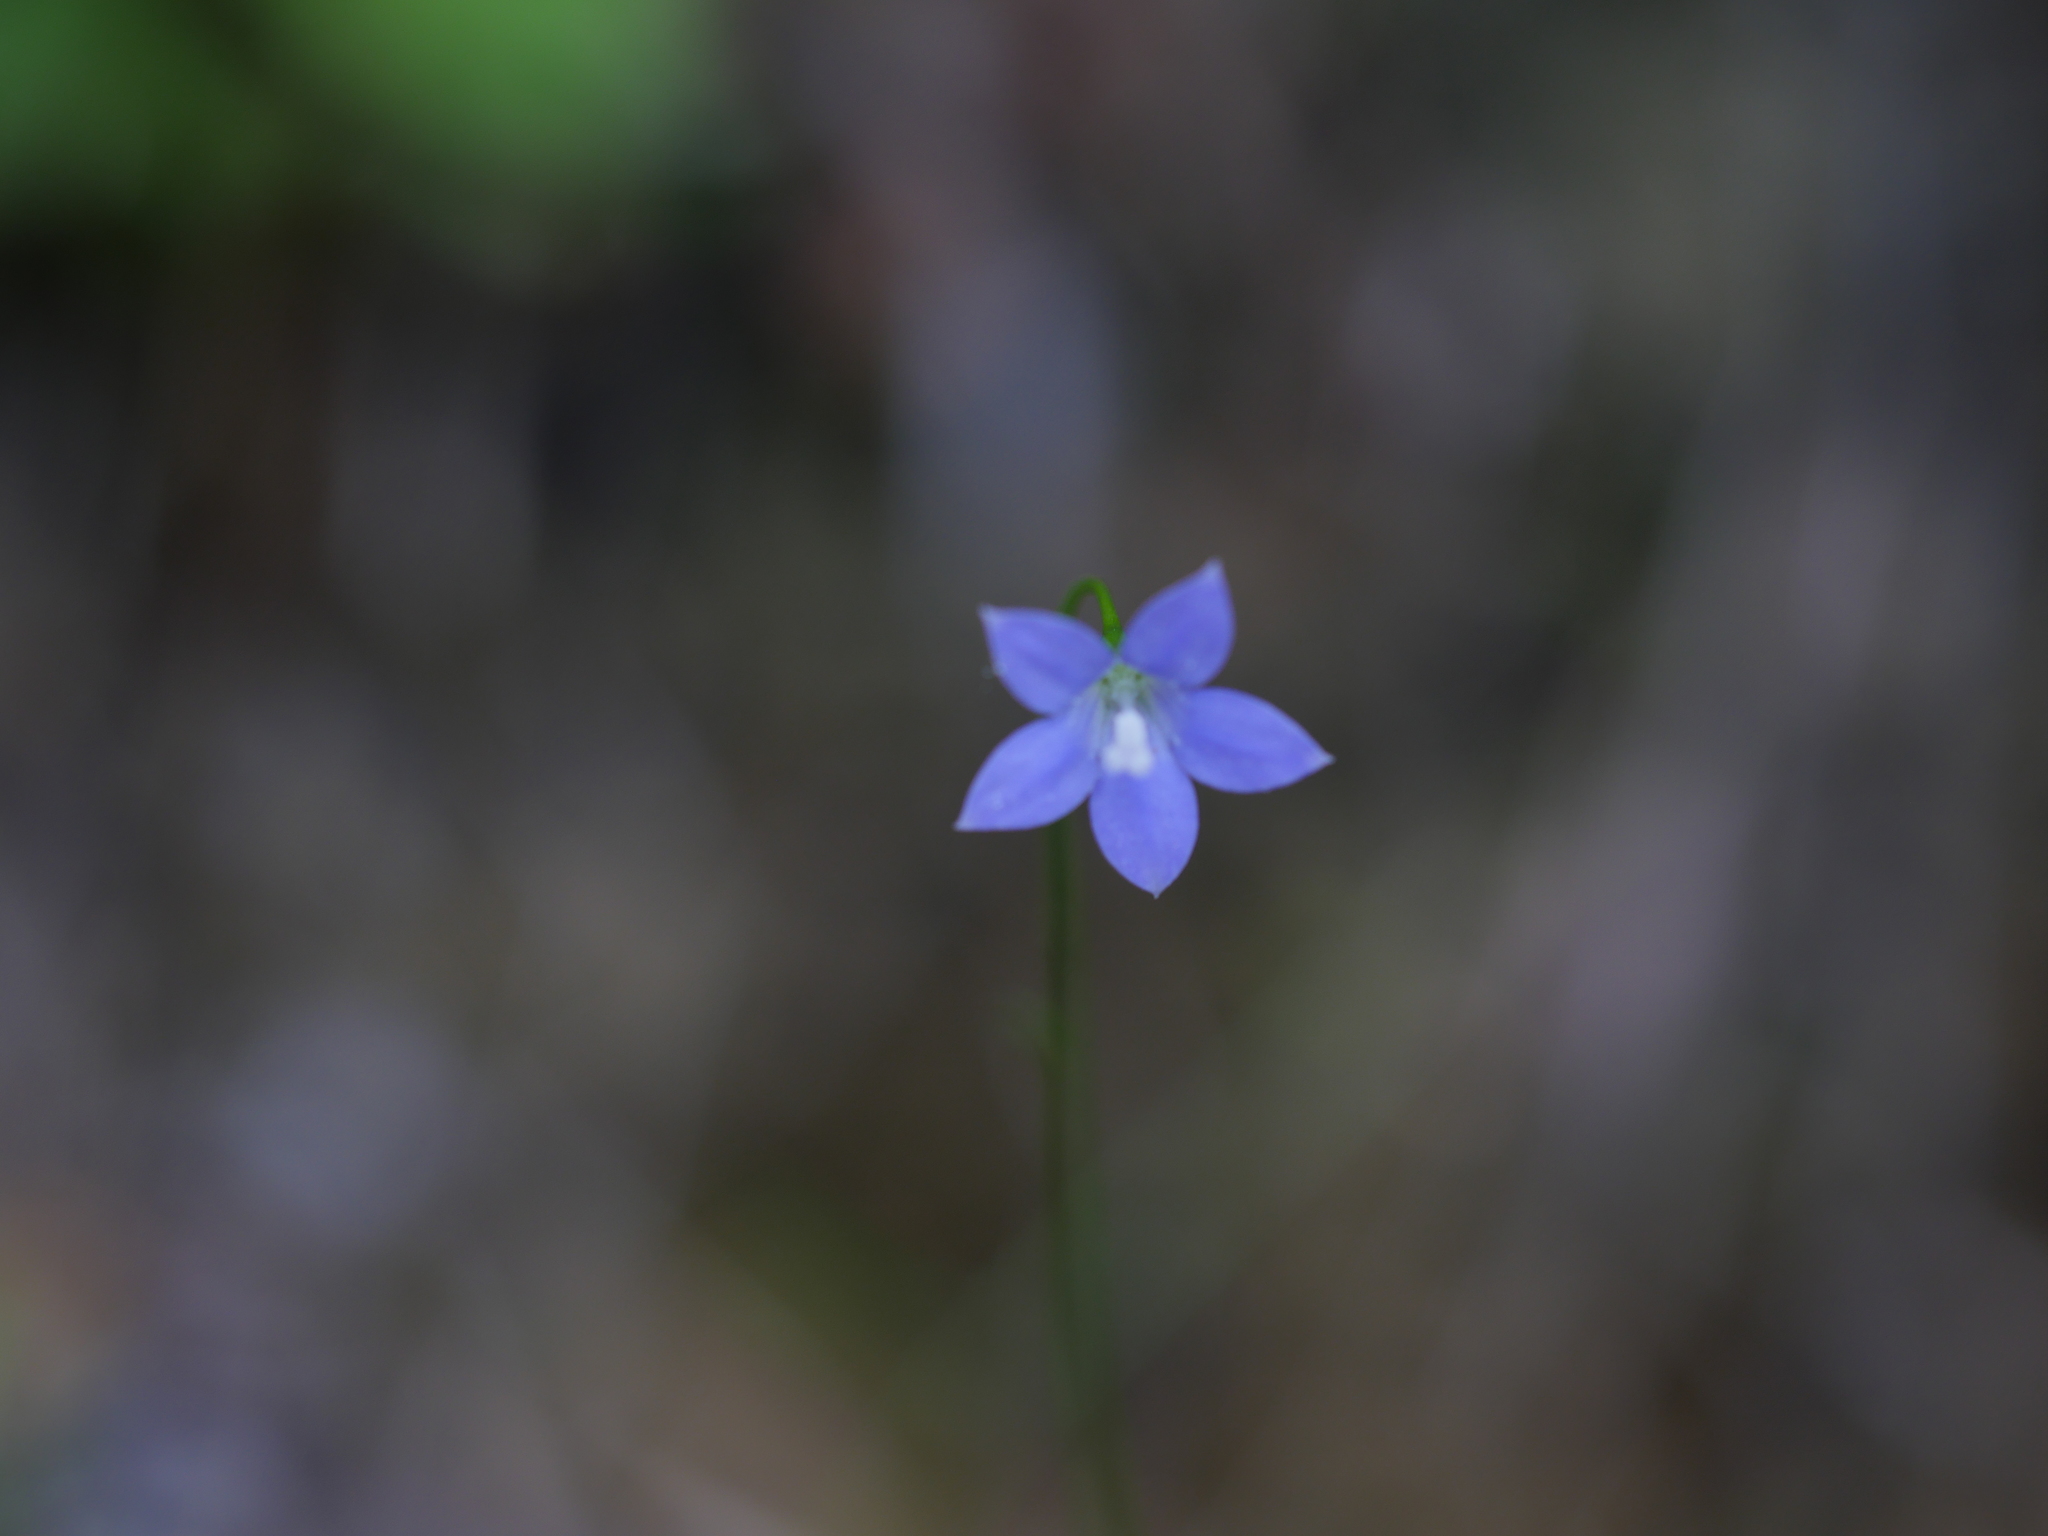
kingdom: Plantae
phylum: Tracheophyta
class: Magnoliopsida
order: Asterales
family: Campanulaceae
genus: Wahlenbergia
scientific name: Wahlenbergia violacea
